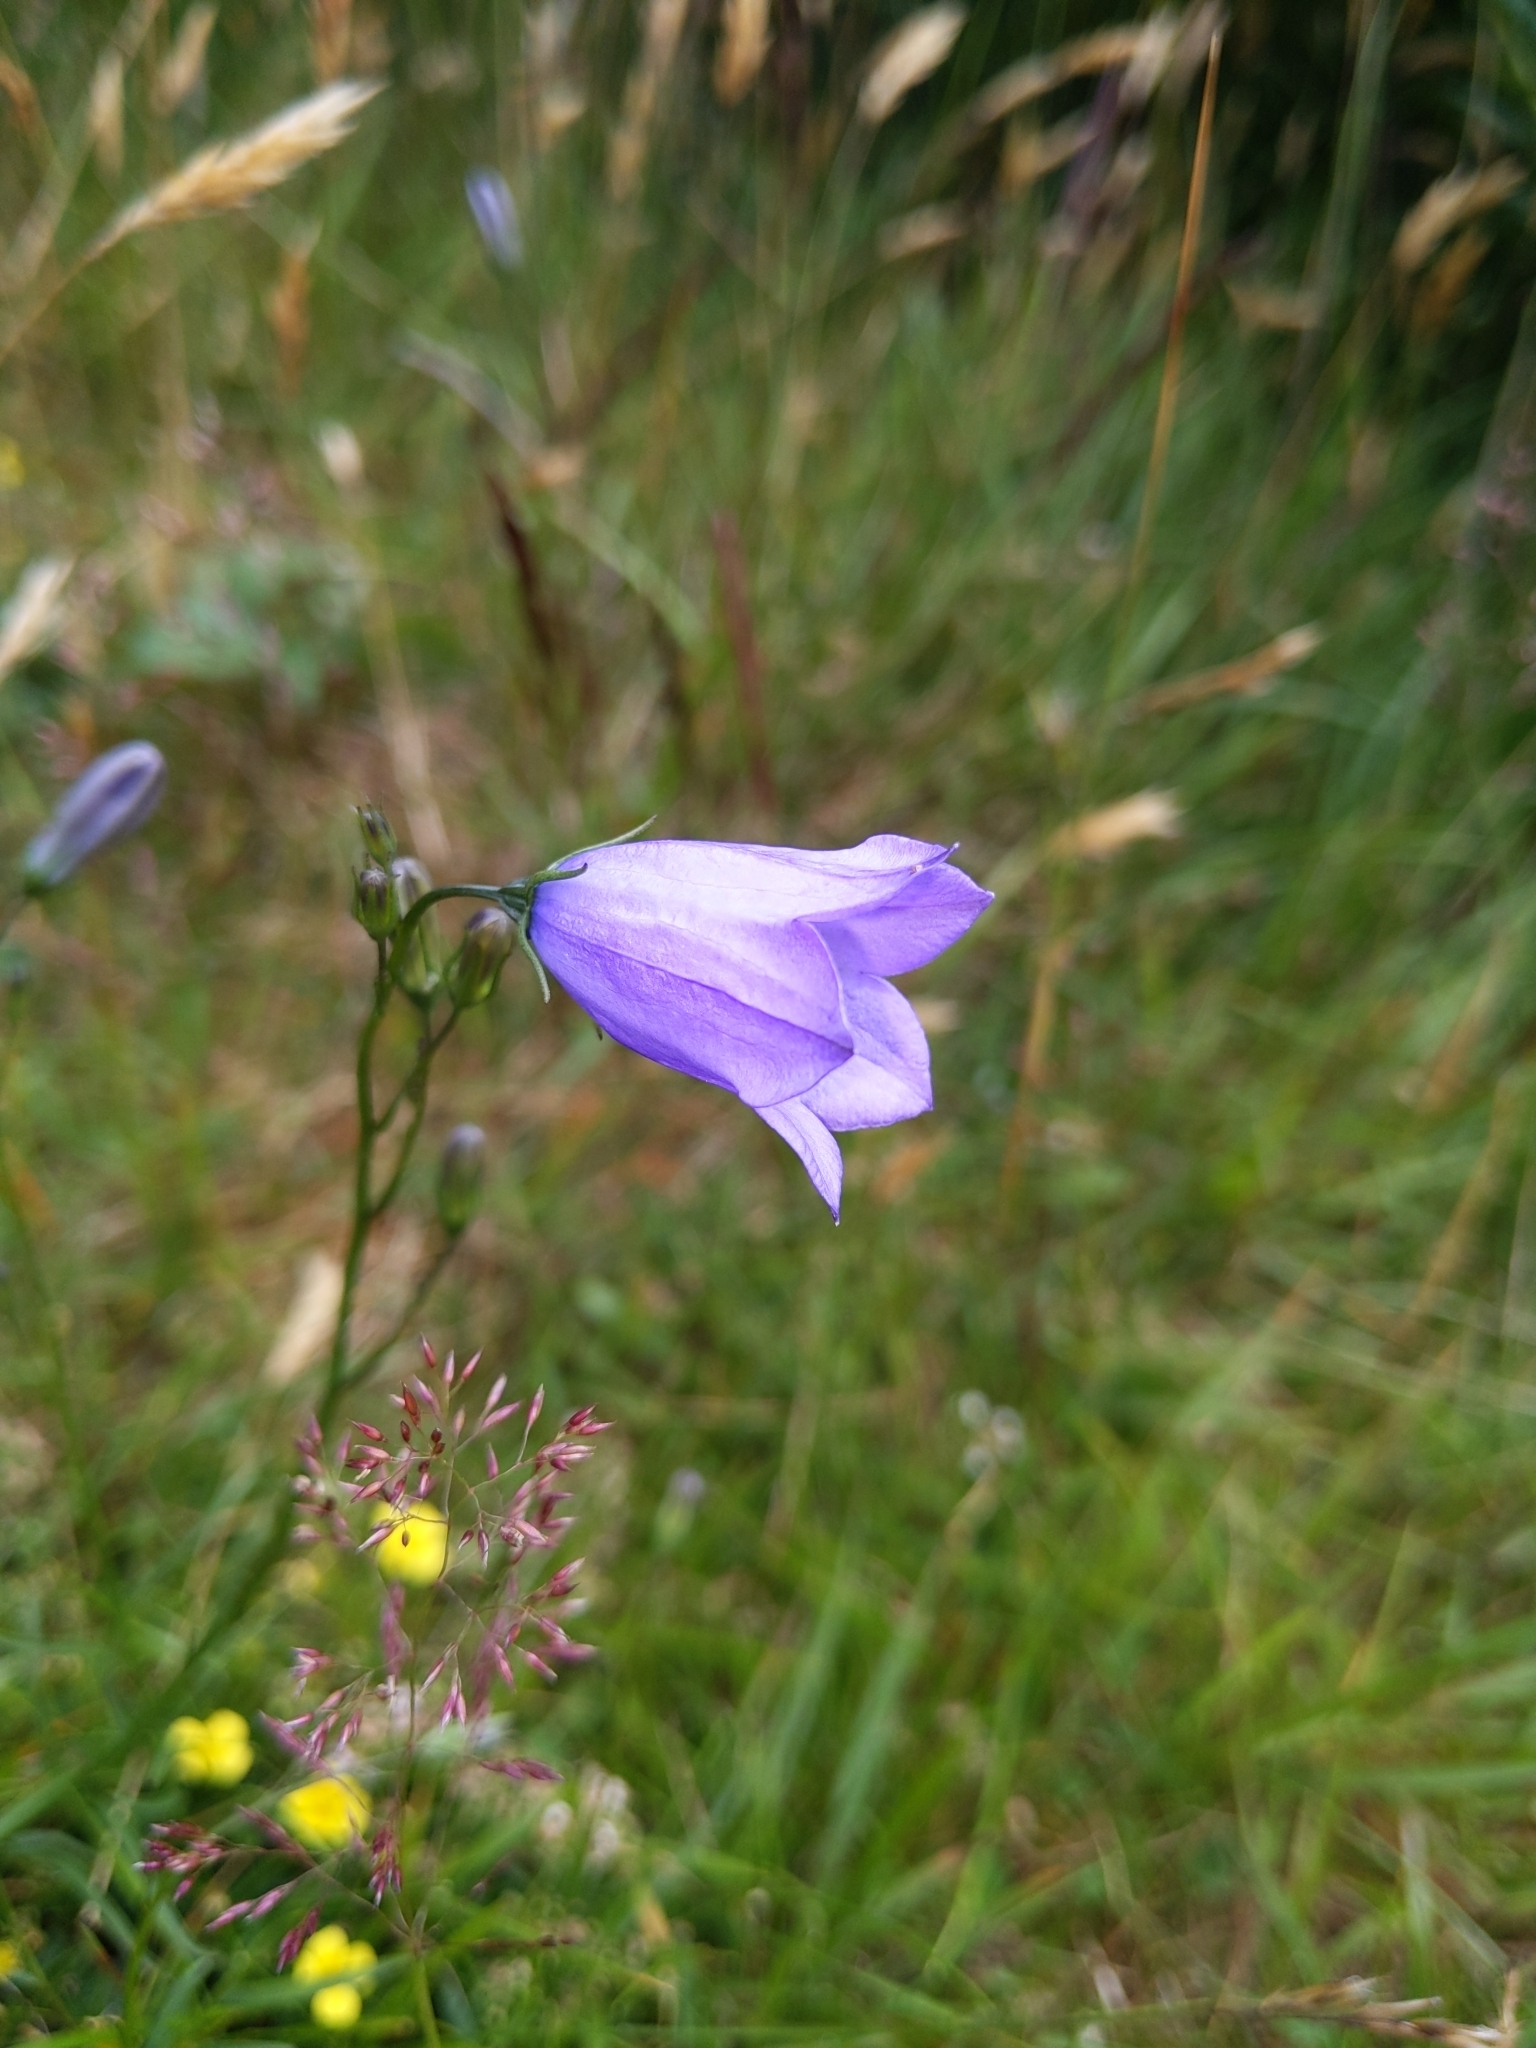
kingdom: Plantae
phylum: Tracheophyta
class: Magnoliopsida
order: Asterales
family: Campanulaceae
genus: Campanula
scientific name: Campanula rotundifolia
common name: Harebell
